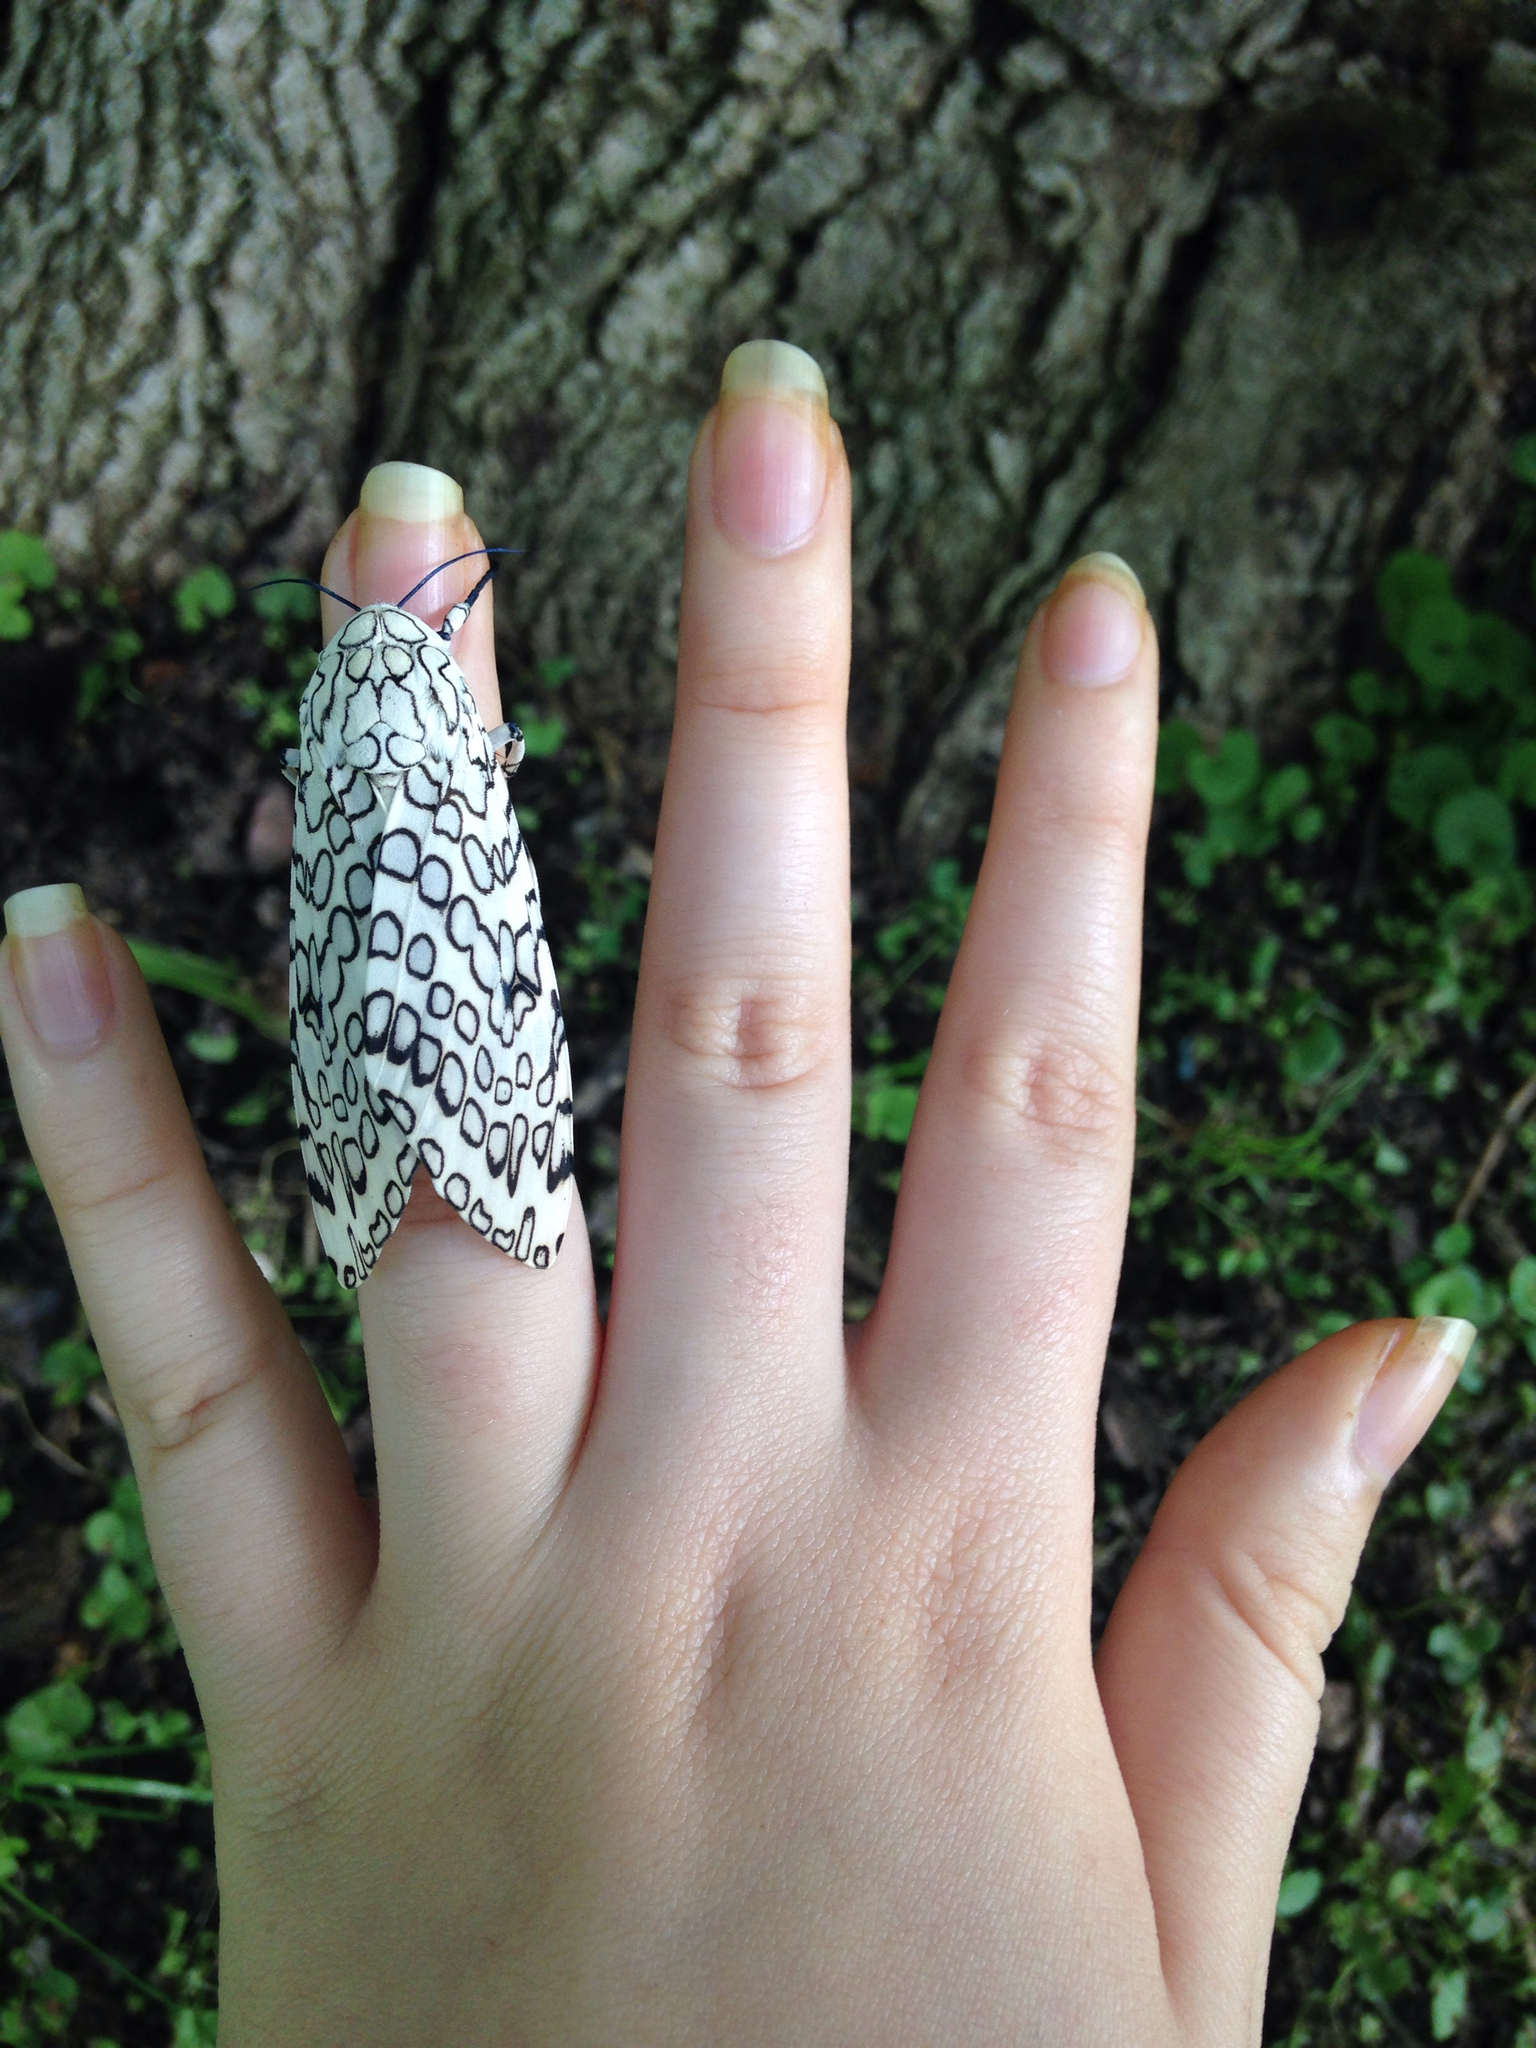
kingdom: Animalia
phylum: Arthropoda
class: Insecta
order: Lepidoptera
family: Erebidae
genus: Hypercompe
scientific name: Hypercompe scribonia
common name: Giant leopard moth
